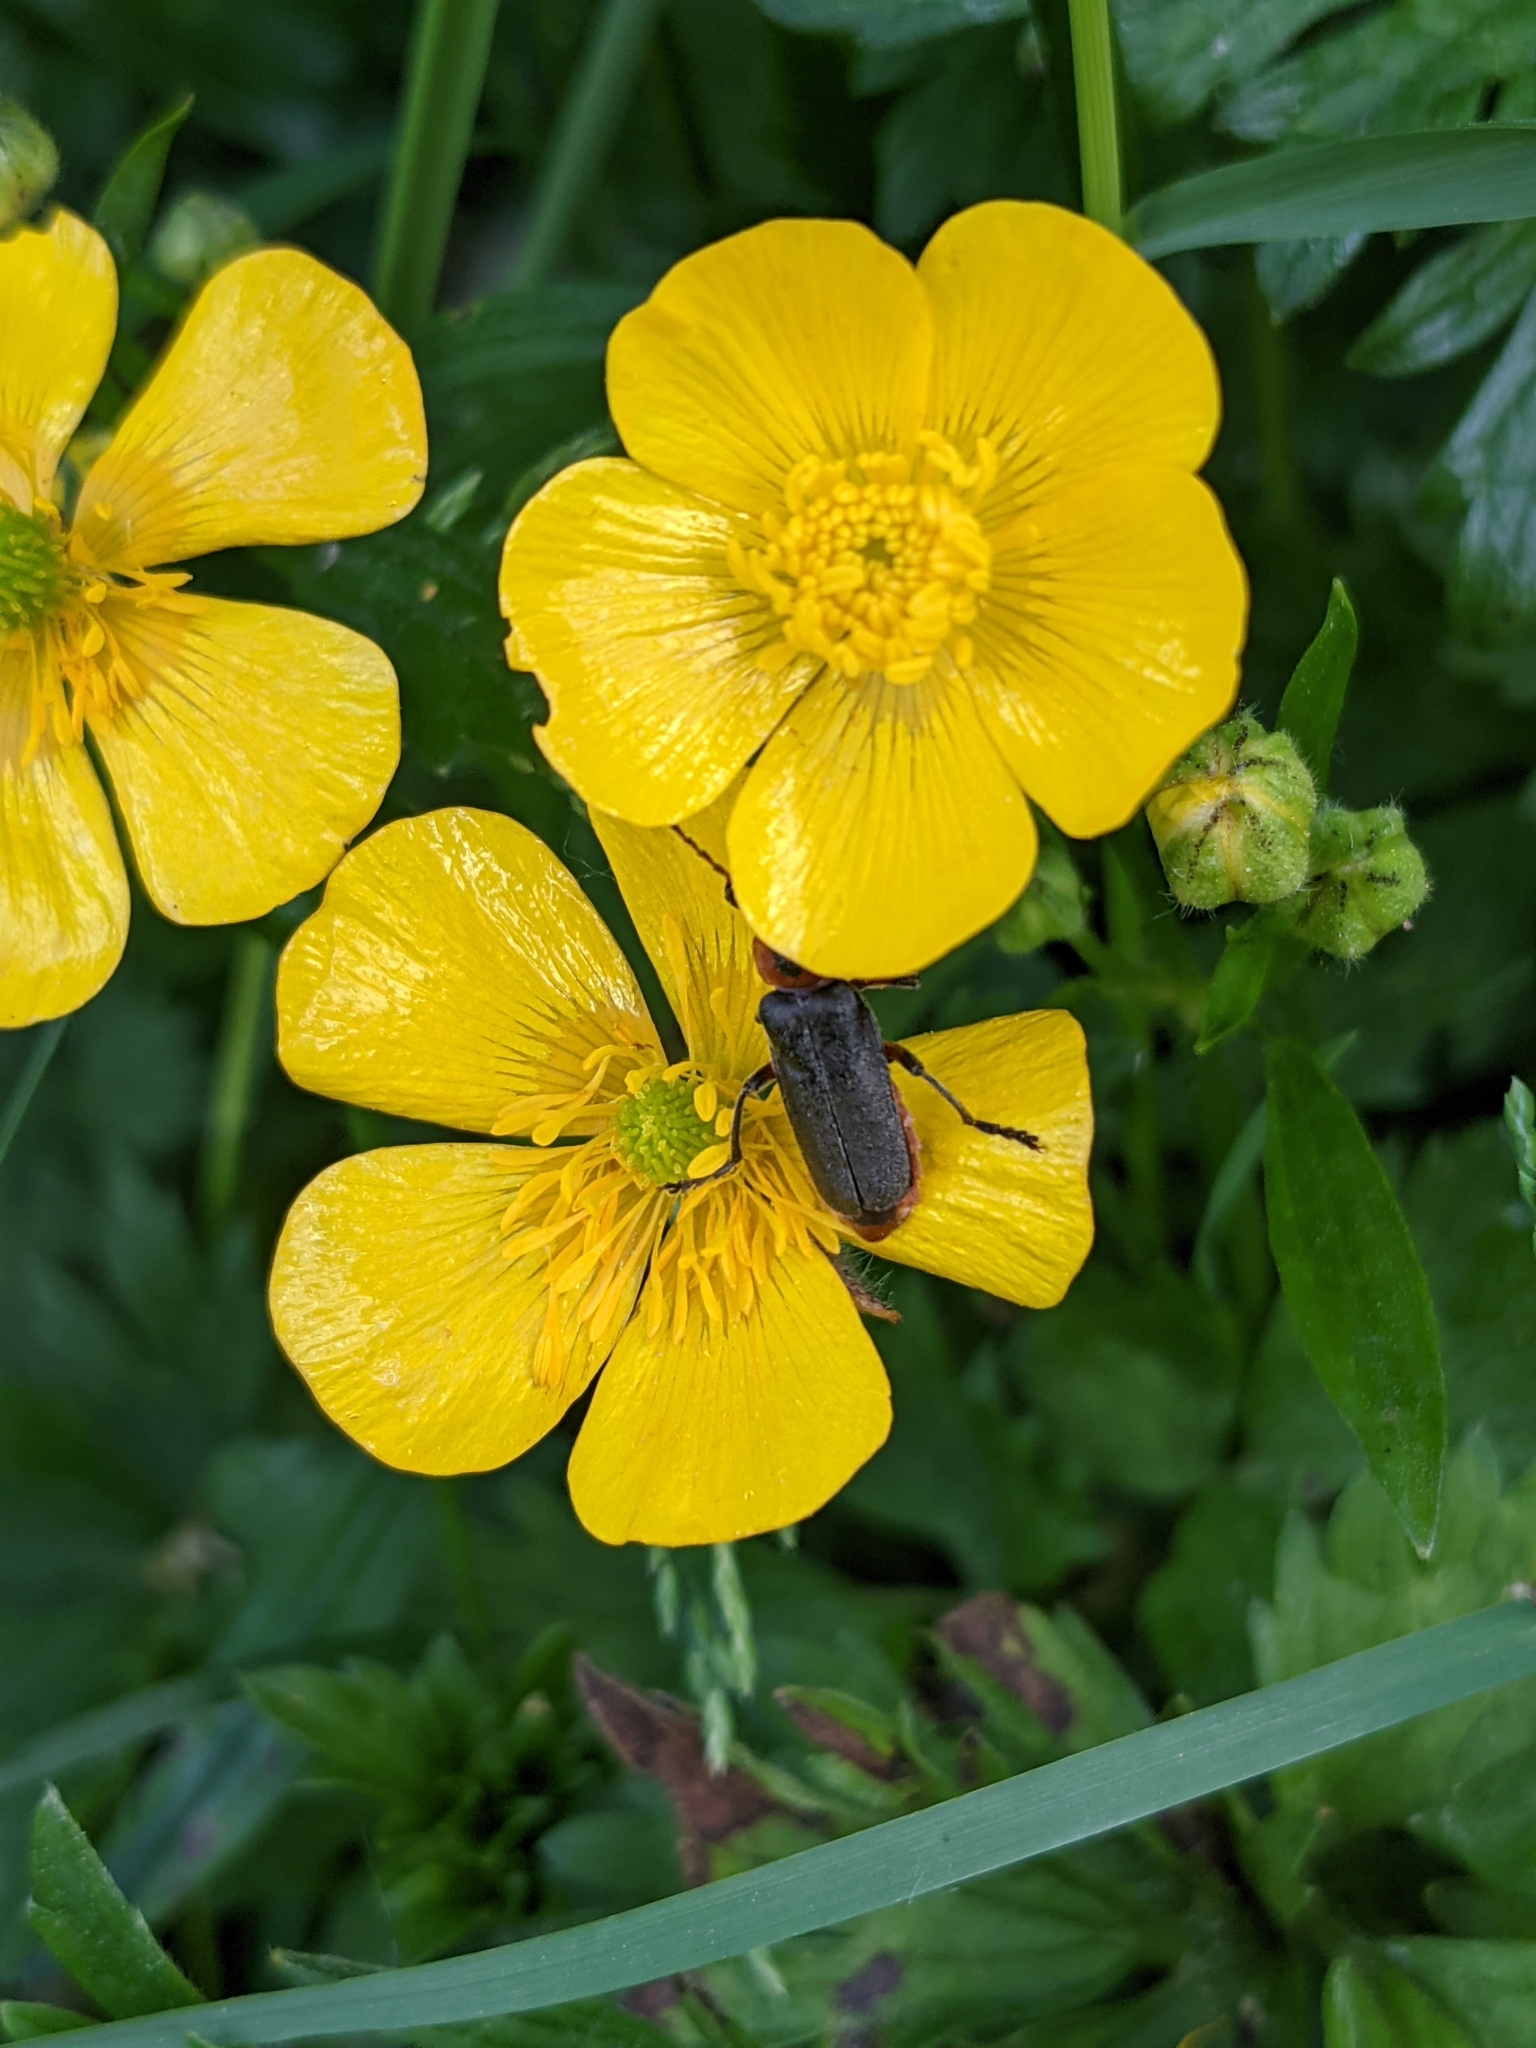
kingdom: Animalia
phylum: Arthropoda
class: Insecta
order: Coleoptera
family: Cantharidae
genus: Cantharis
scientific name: Cantharis rustica
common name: Soldier beetle
